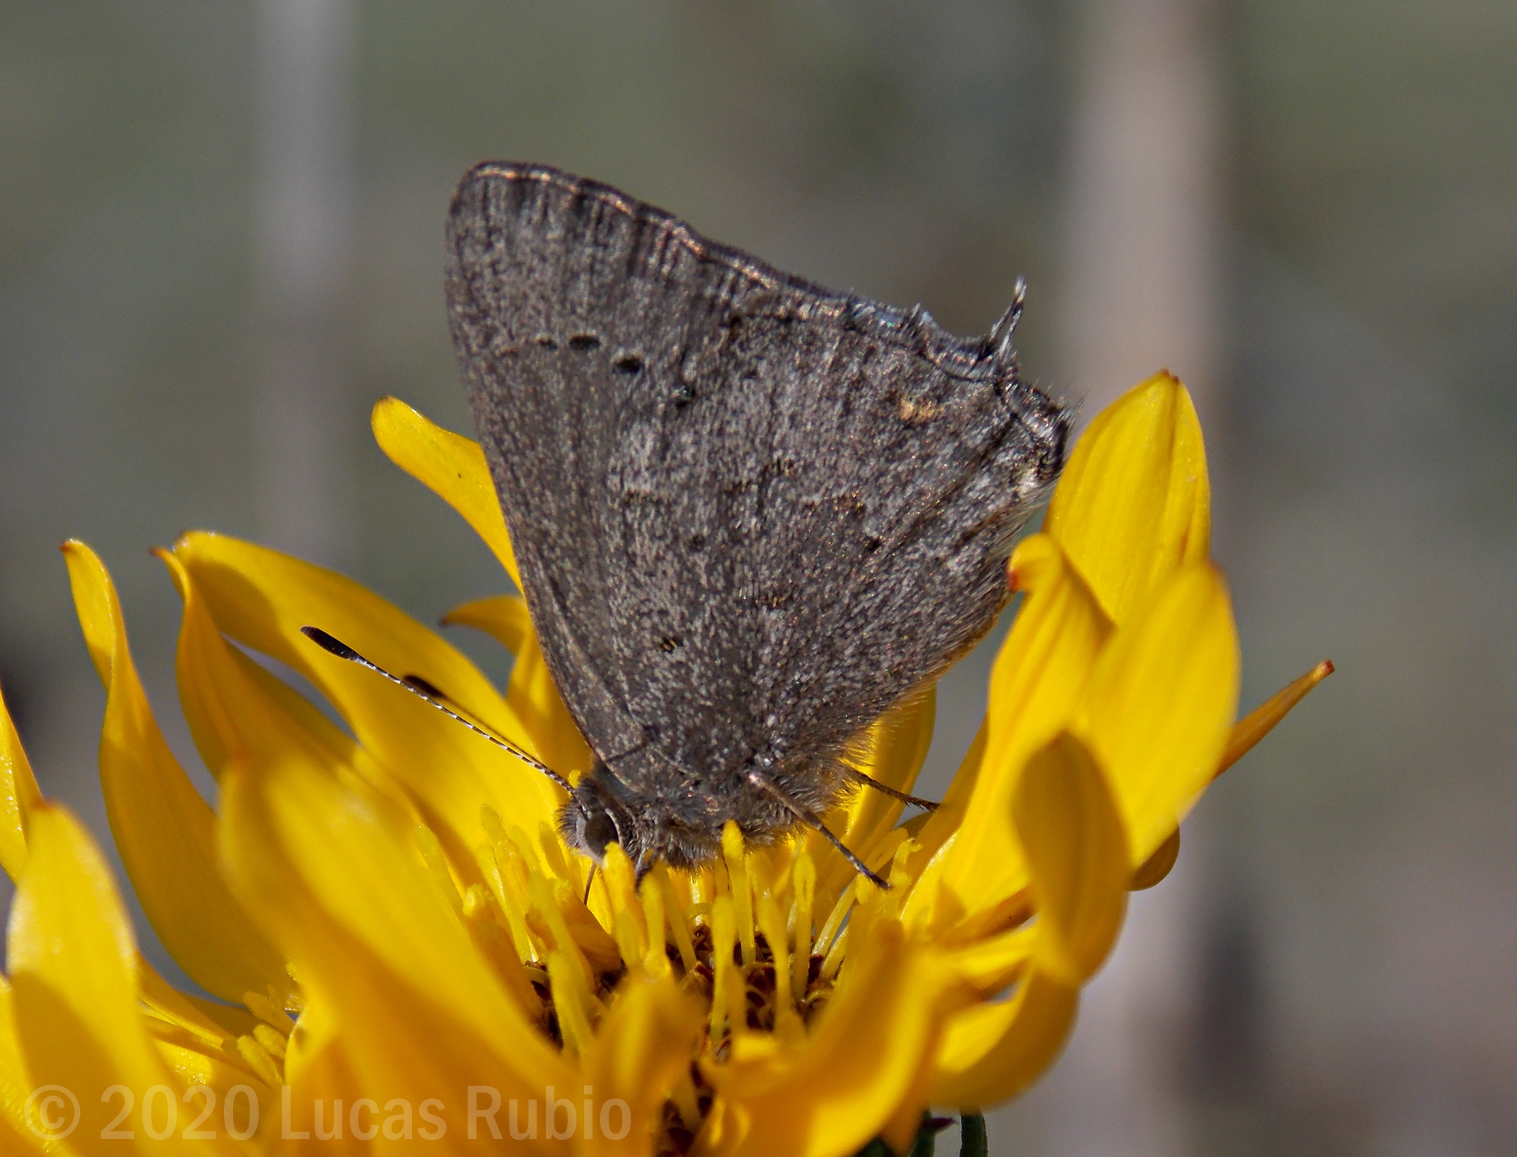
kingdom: Animalia
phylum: Arthropoda
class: Insecta
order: Lepidoptera
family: Lycaenidae
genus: Strymon
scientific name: Strymon eurytulus
